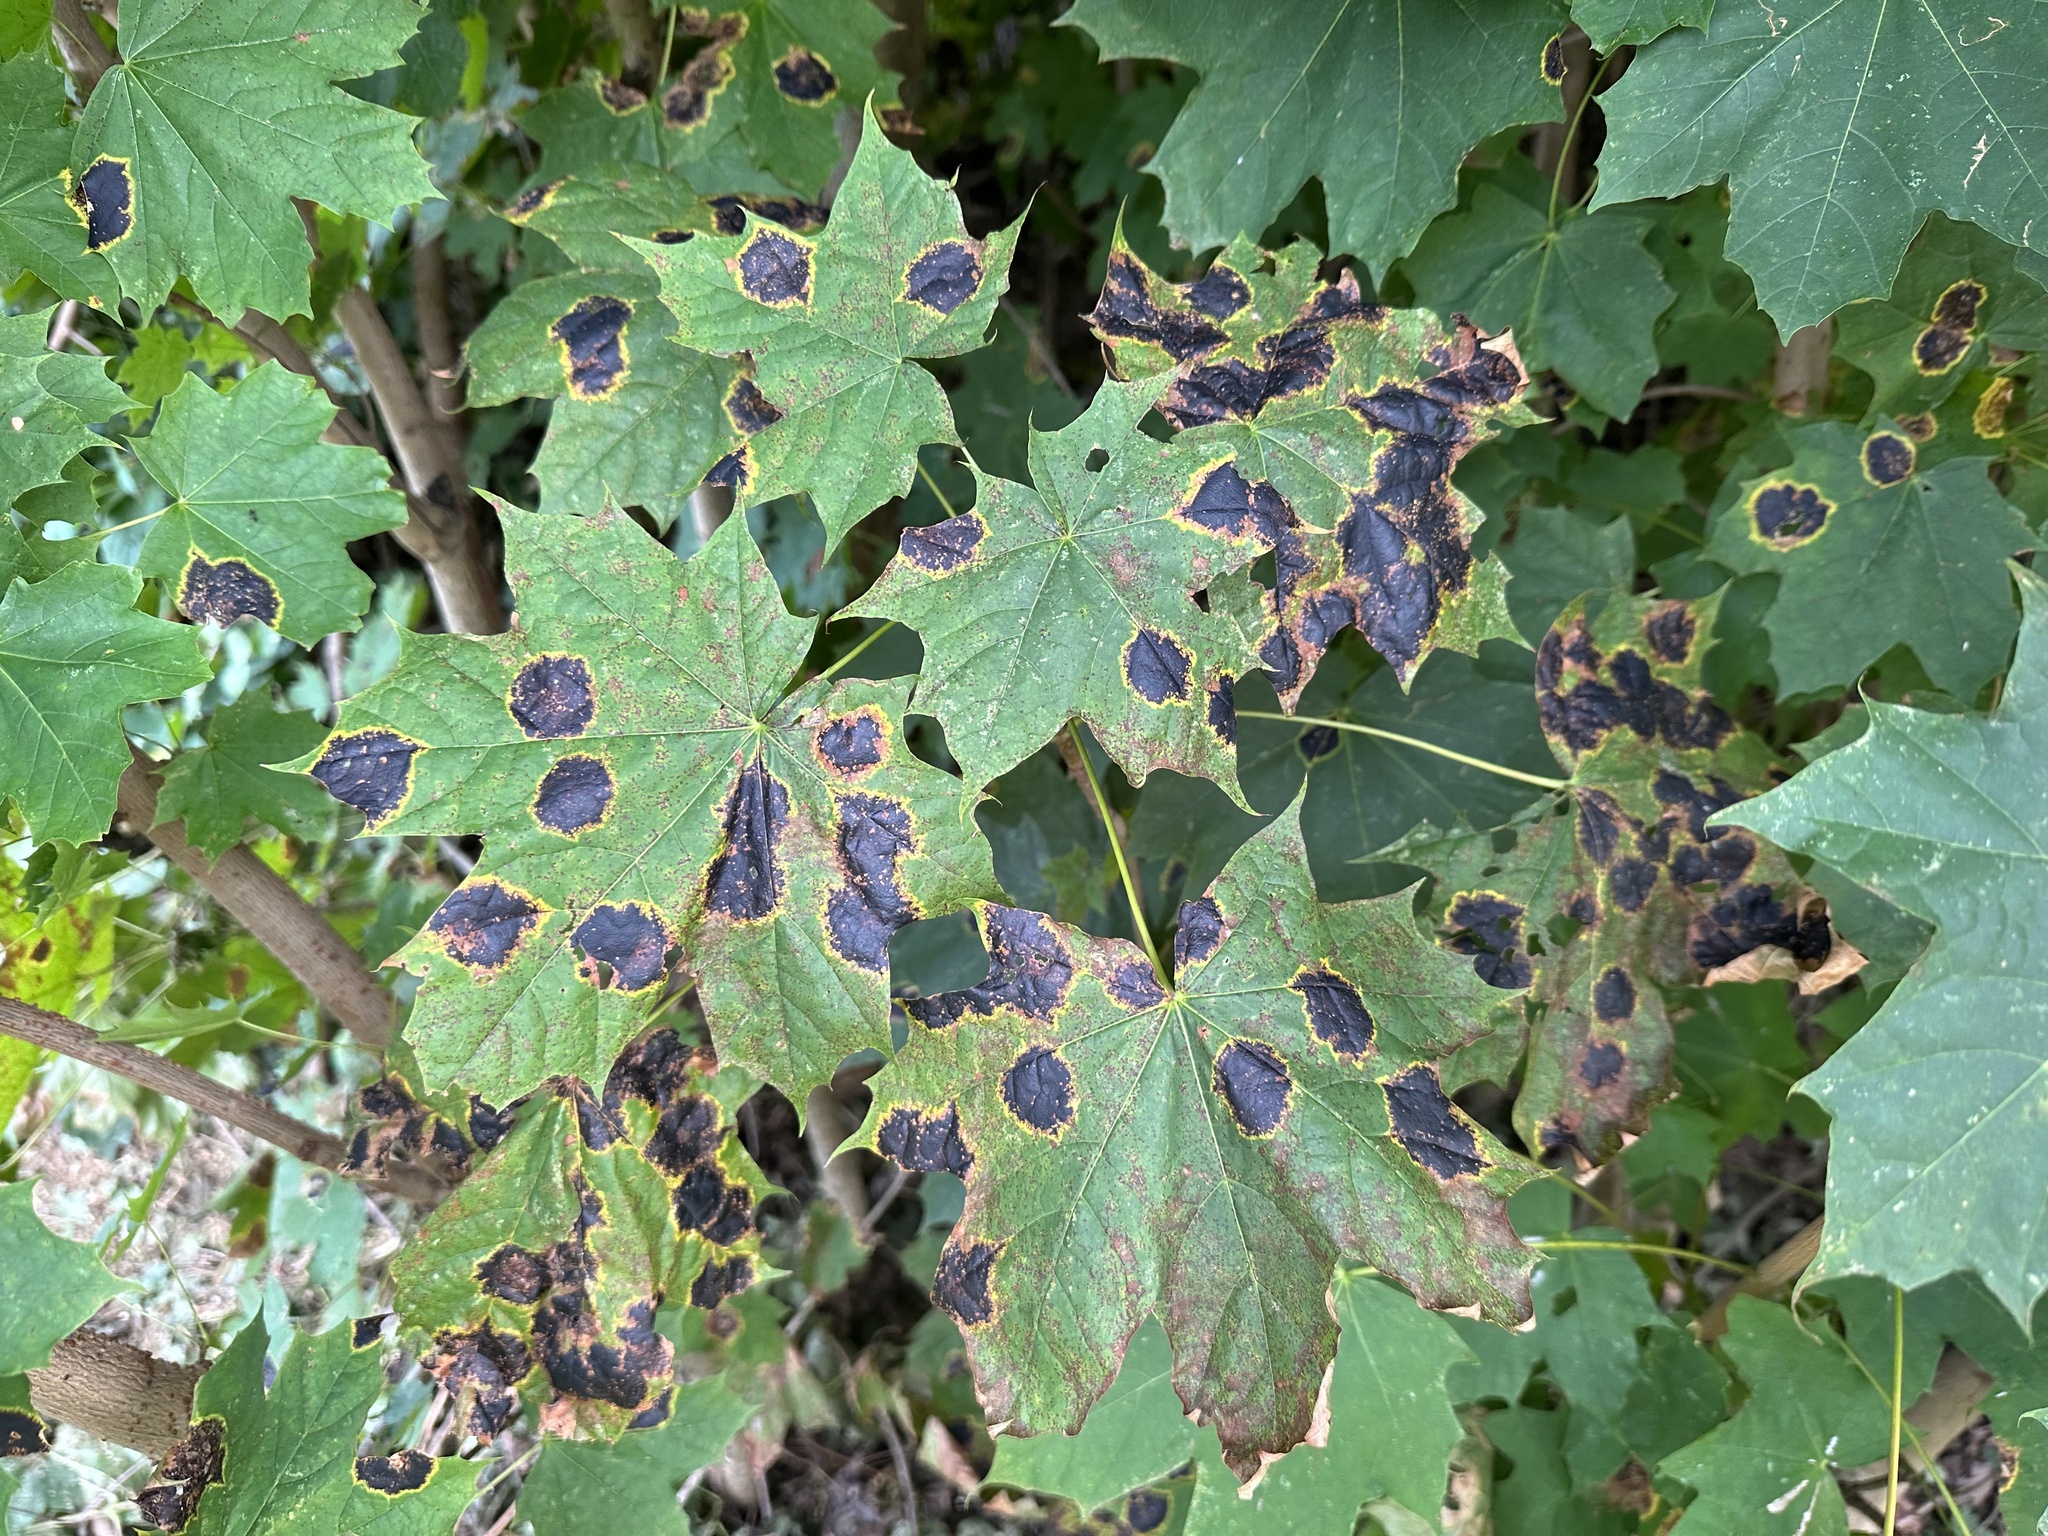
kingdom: Fungi
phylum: Ascomycota
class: Leotiomycetes
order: Rhytismatales
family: Rhytismataceae
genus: Rhytisma
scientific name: Rhytisma acerinum
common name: European tar spot
